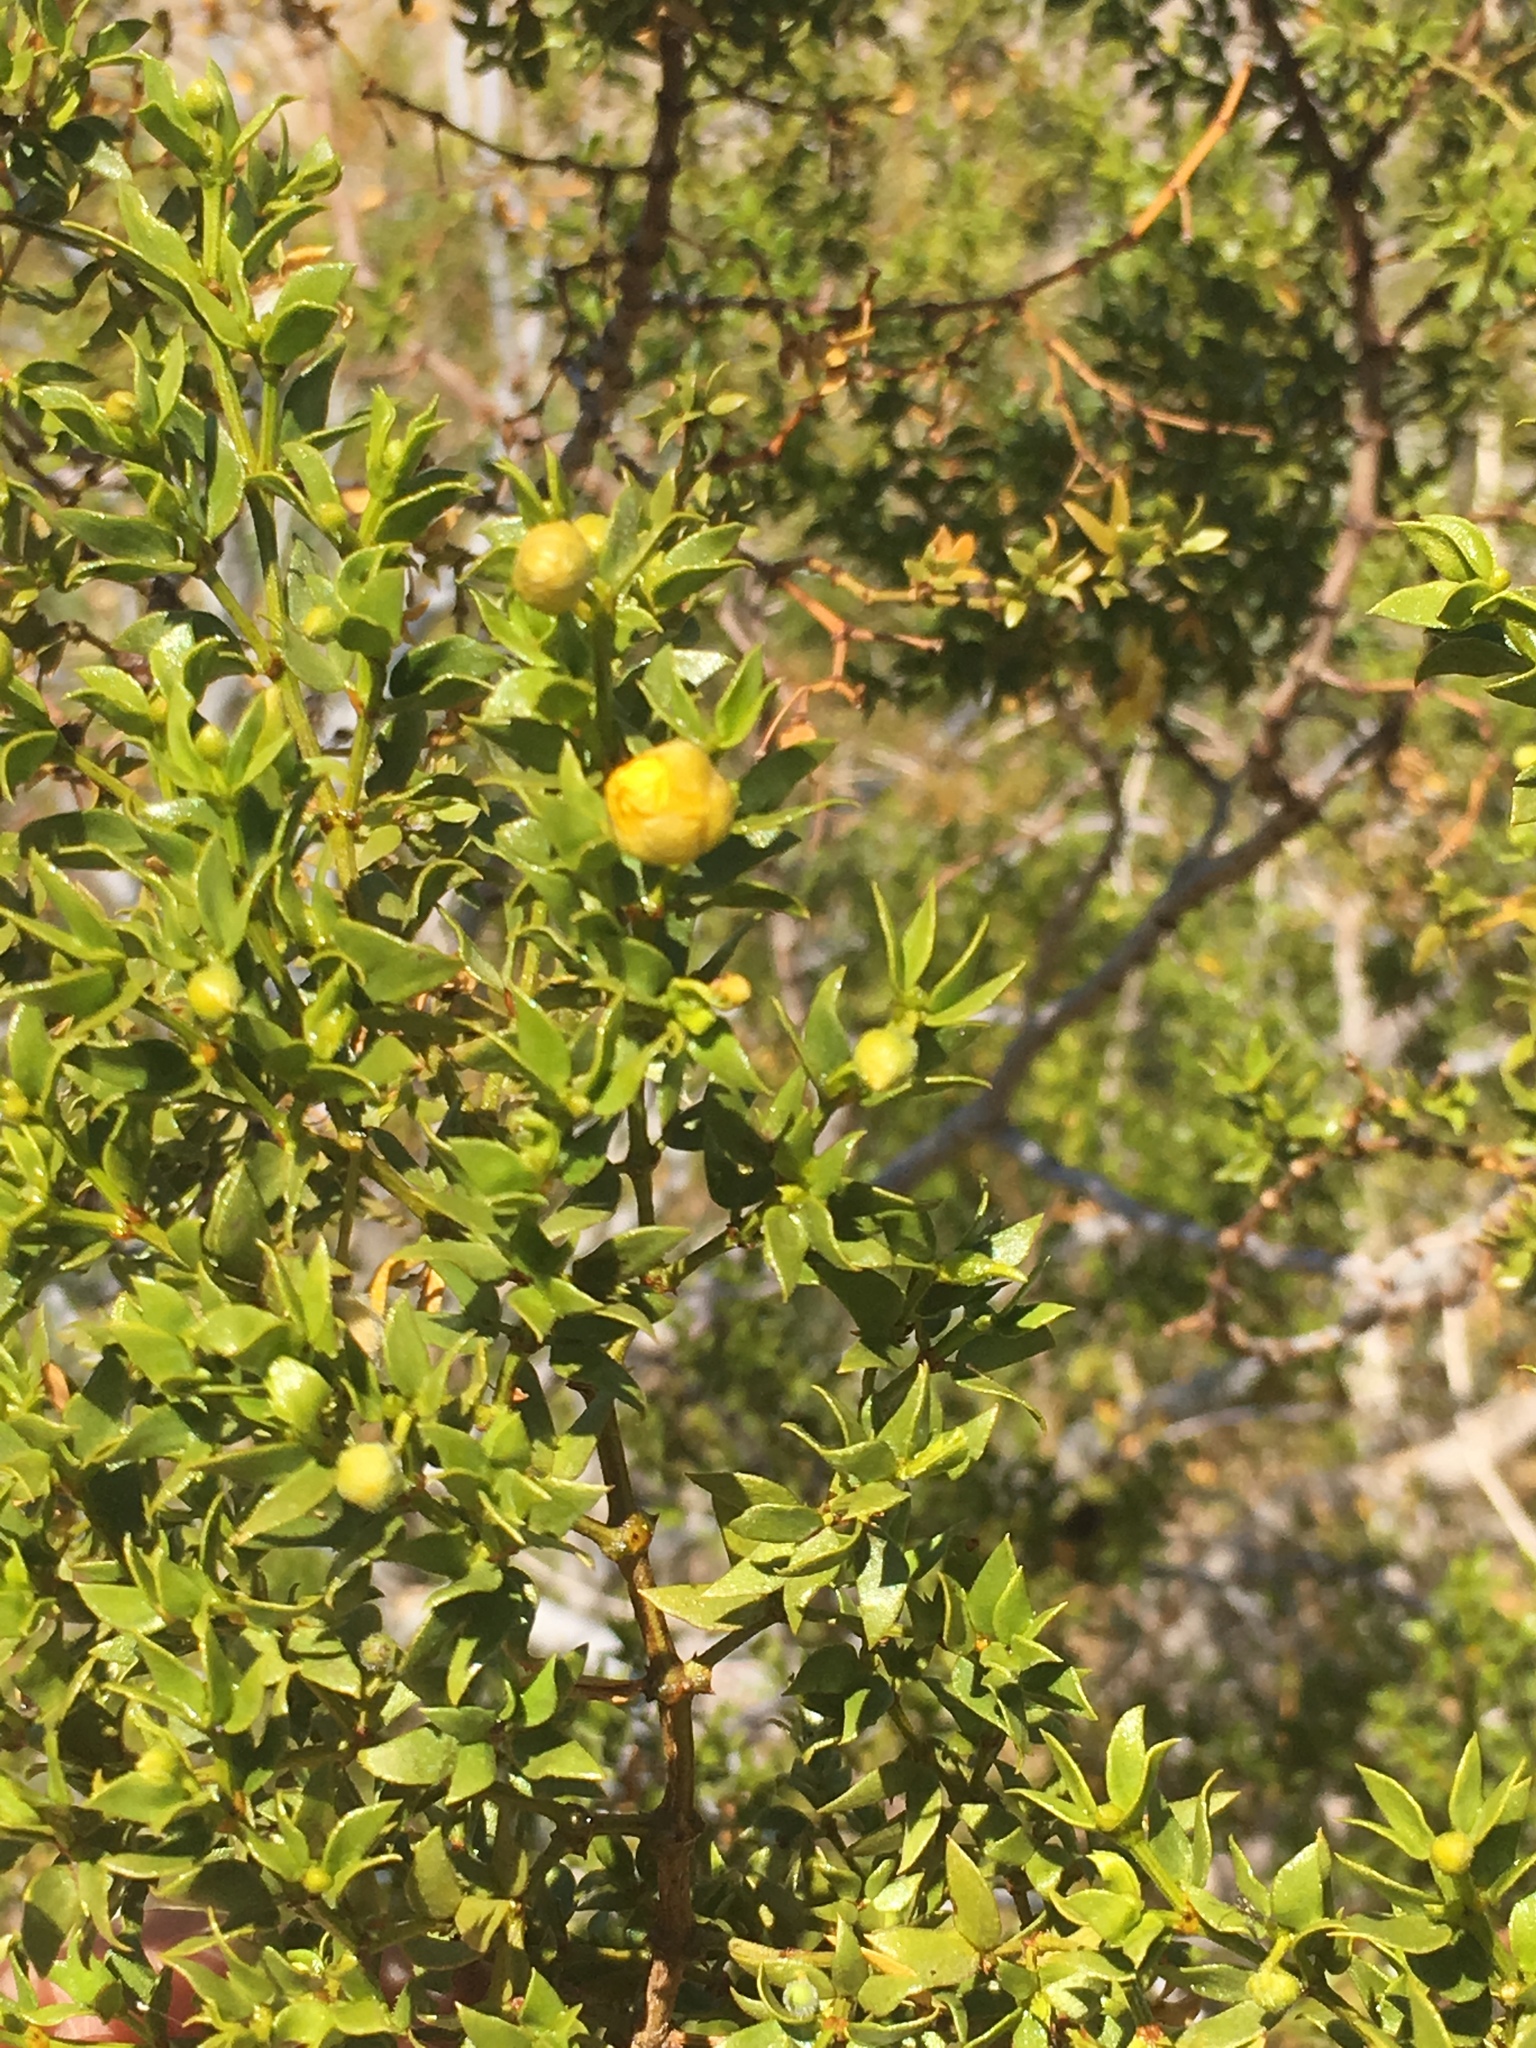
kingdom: Plantae
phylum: Tracheophyta
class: Magnoliopsida
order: Zygophyllales
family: Zygophyllaceae
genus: Larrea
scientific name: Larrea tridentata
